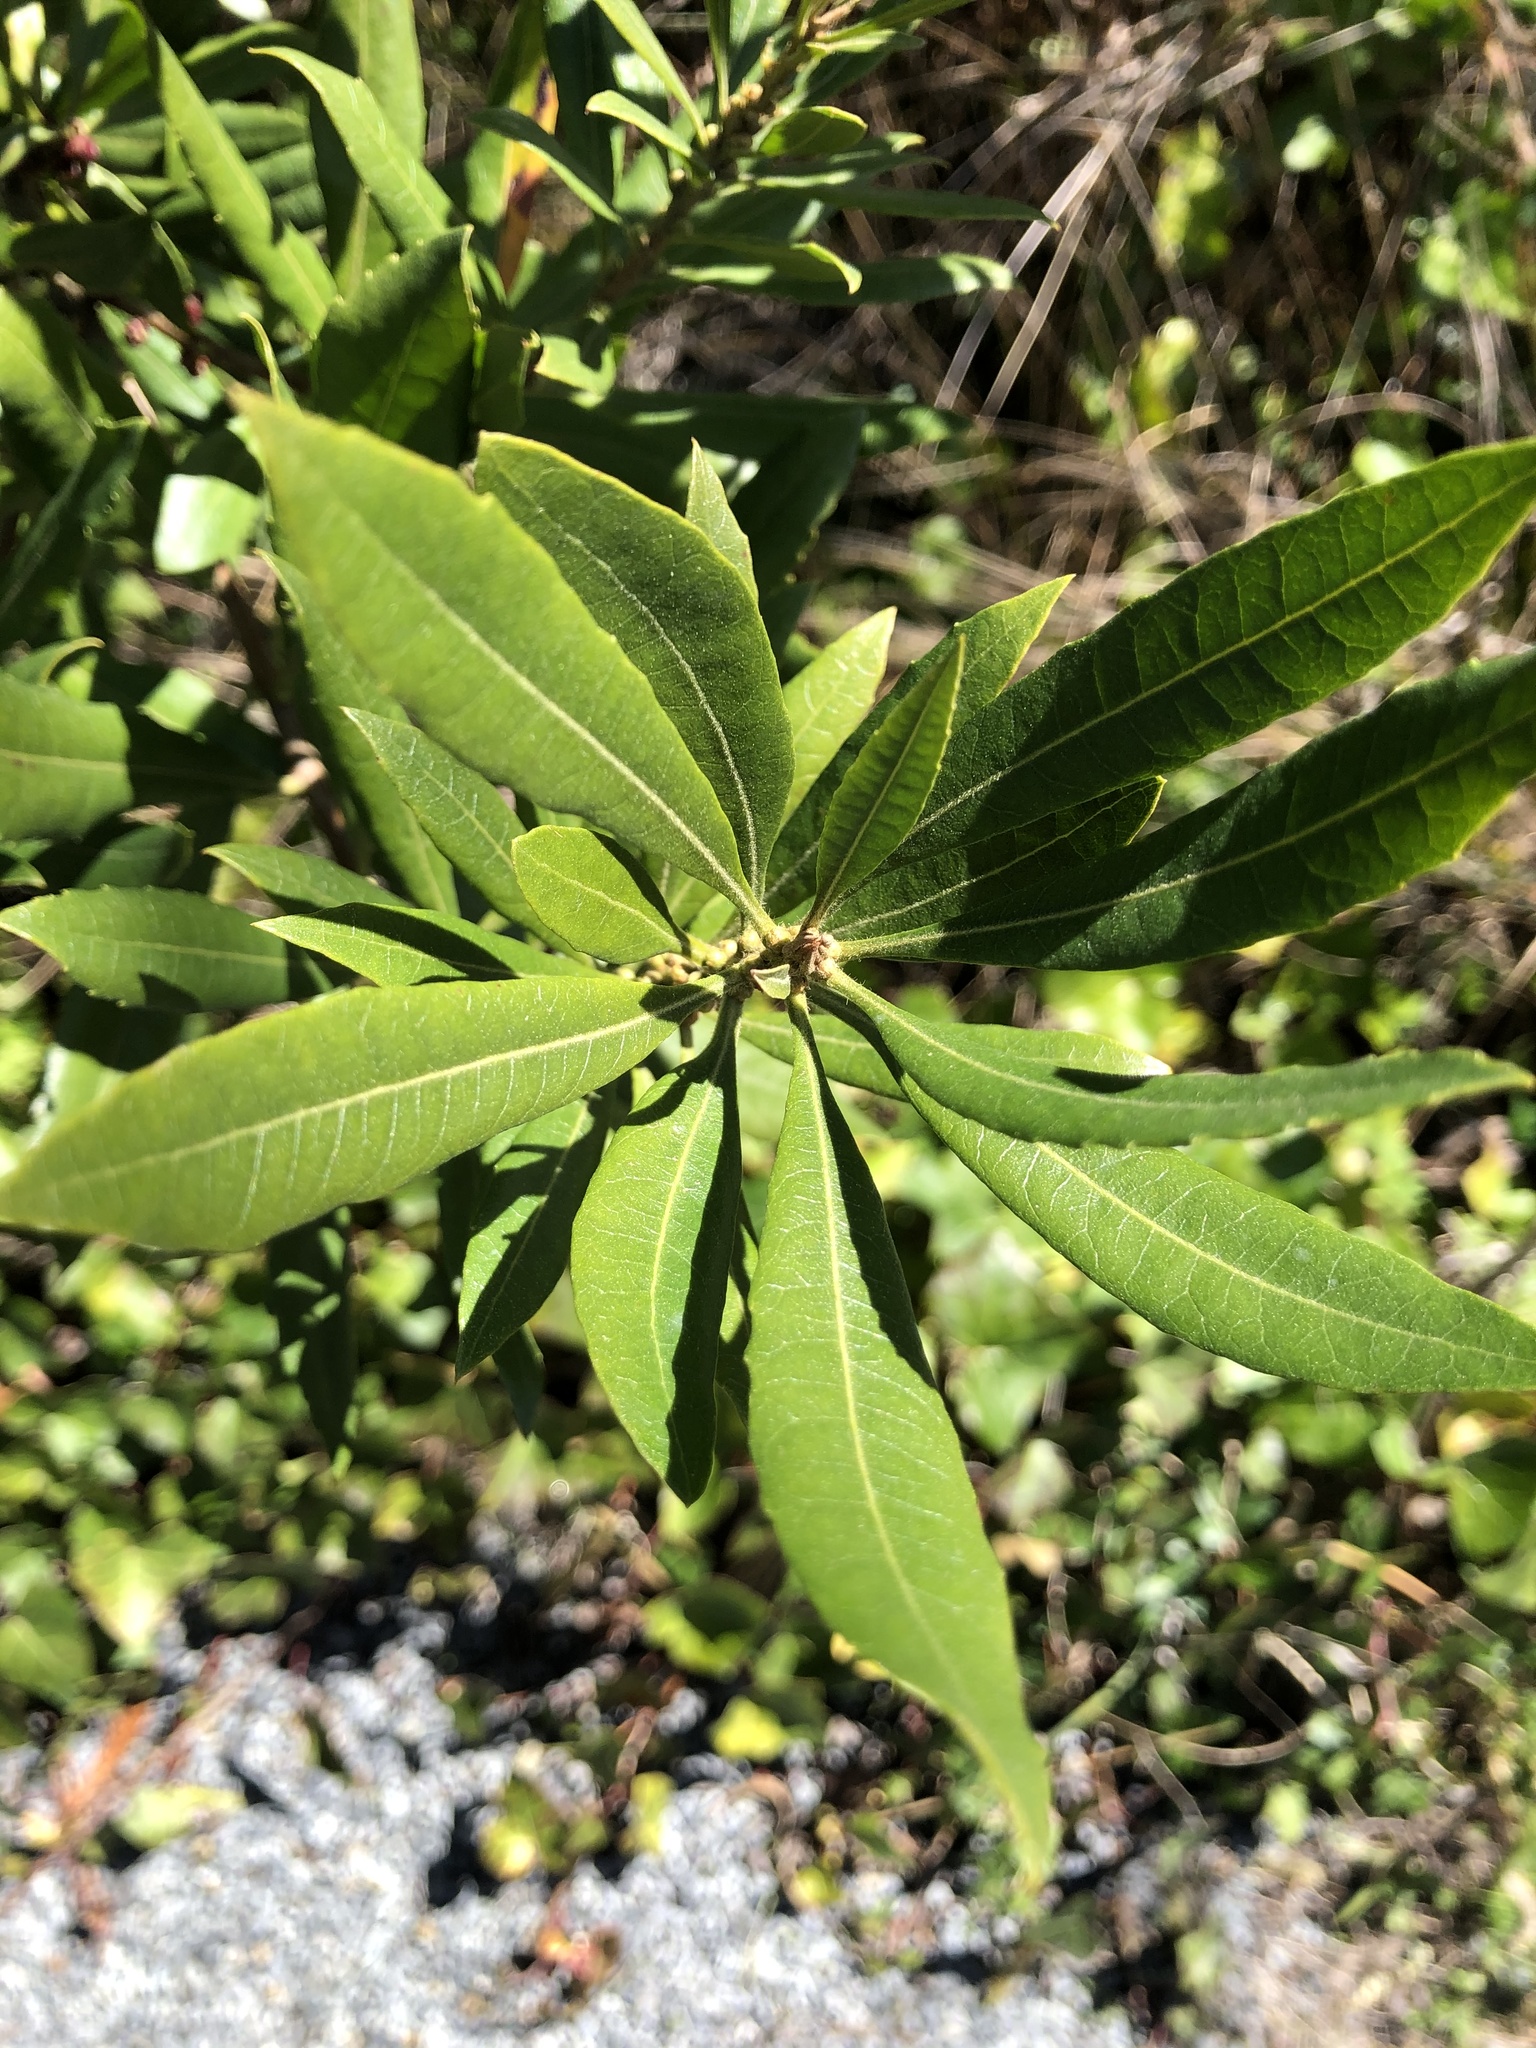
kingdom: Plantae
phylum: Tracheophyta
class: Magnoliopsida
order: Fagales
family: Myricaceae
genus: Morella
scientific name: Morella californica
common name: California wax-myrtle
